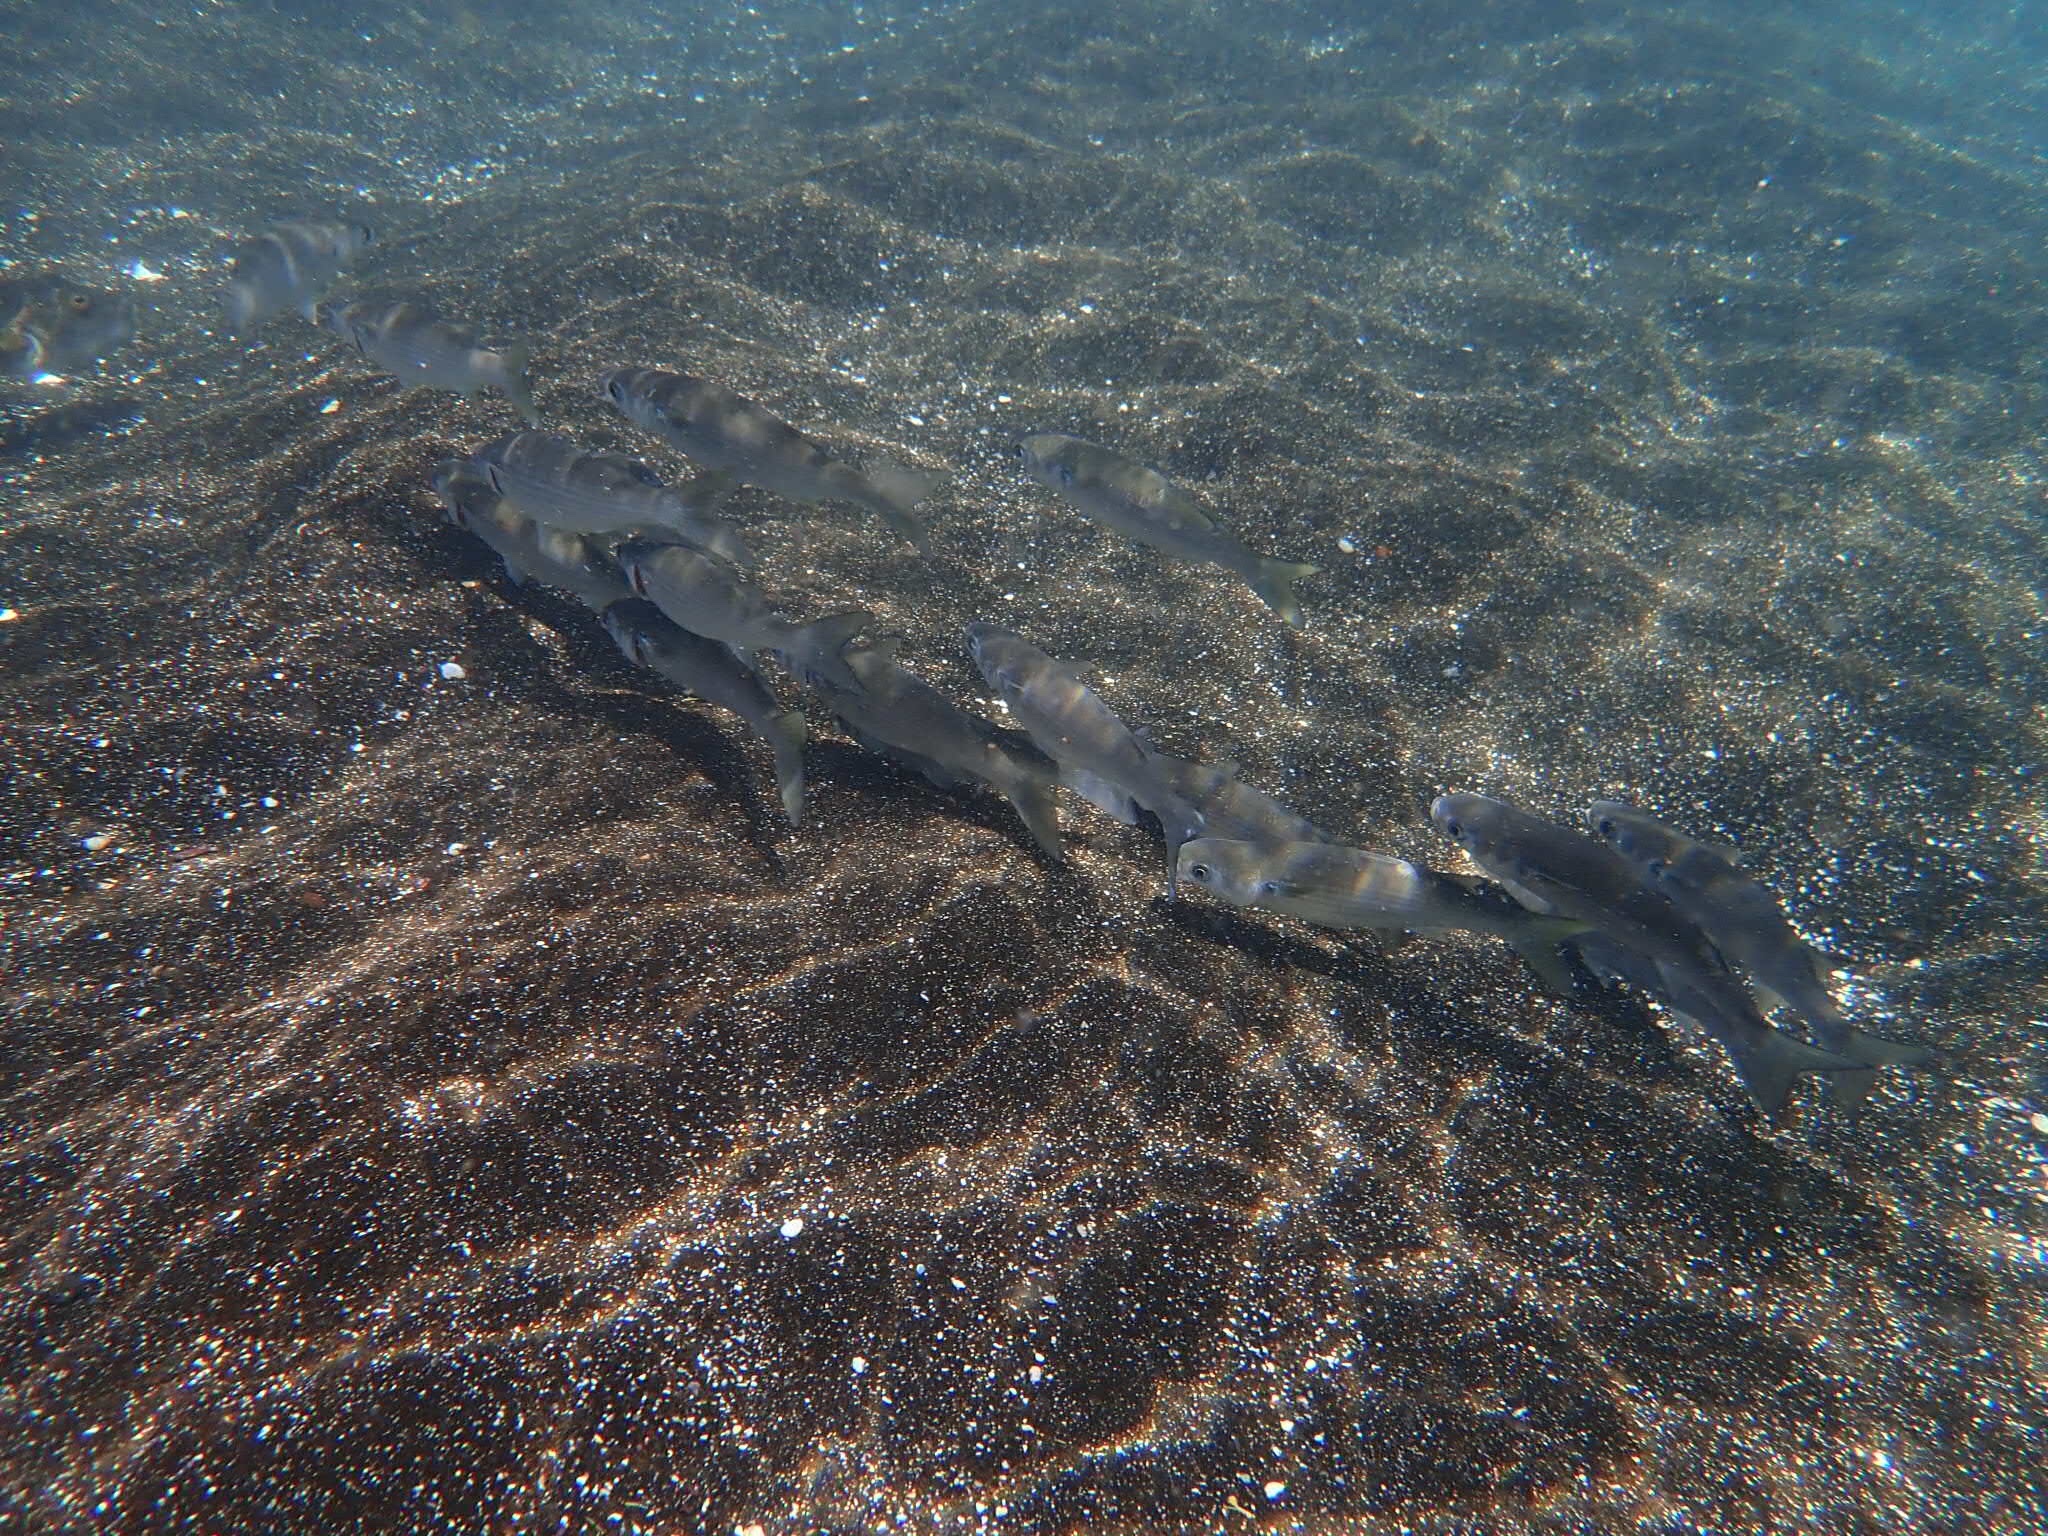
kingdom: Animalia
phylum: Chordata
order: Mugiliformes
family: Mugilidae
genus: Mugil
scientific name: Mugil cephalus
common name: Grey mullet
